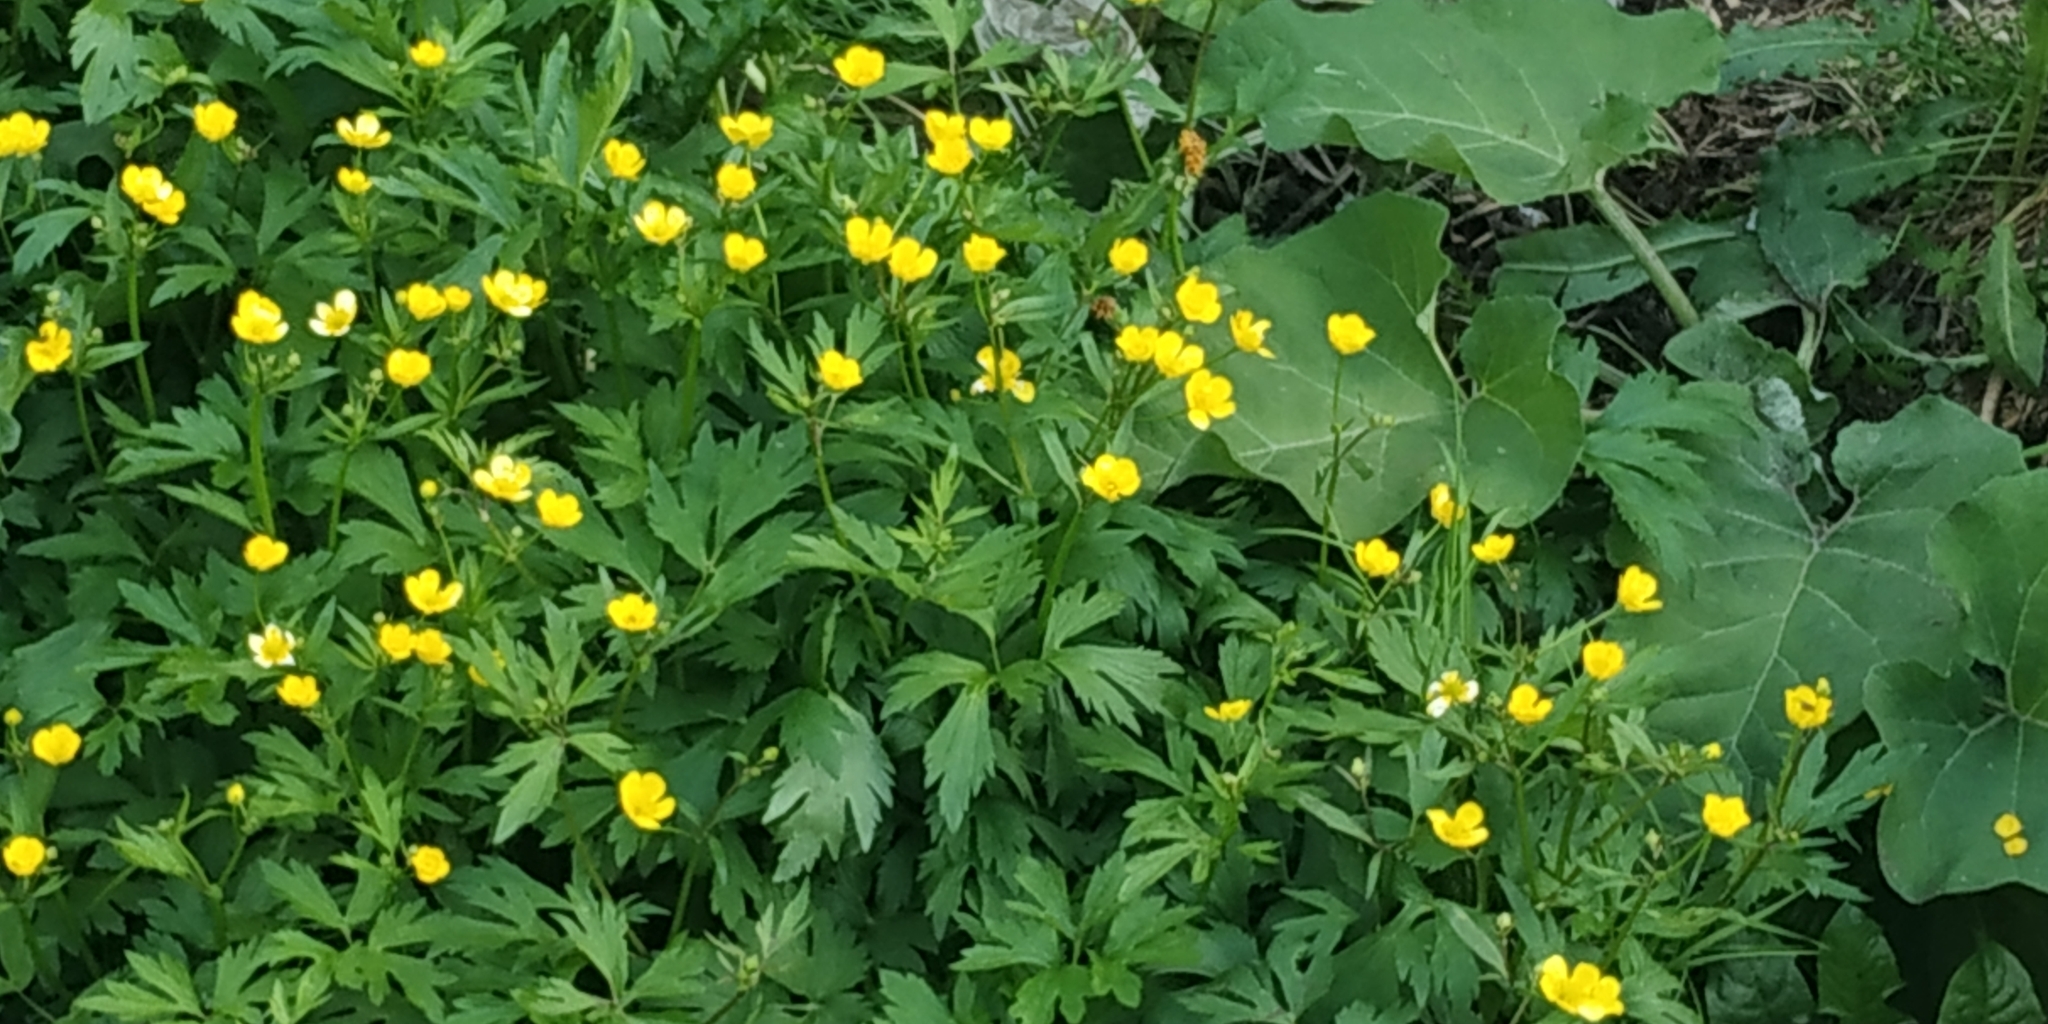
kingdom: Plantae
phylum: Tracheophyta
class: Magnoliopsida
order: Ranunculales
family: Ranunculaceae
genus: Ranunculus
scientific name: Ranunculus repens
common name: Creeping buttercup
